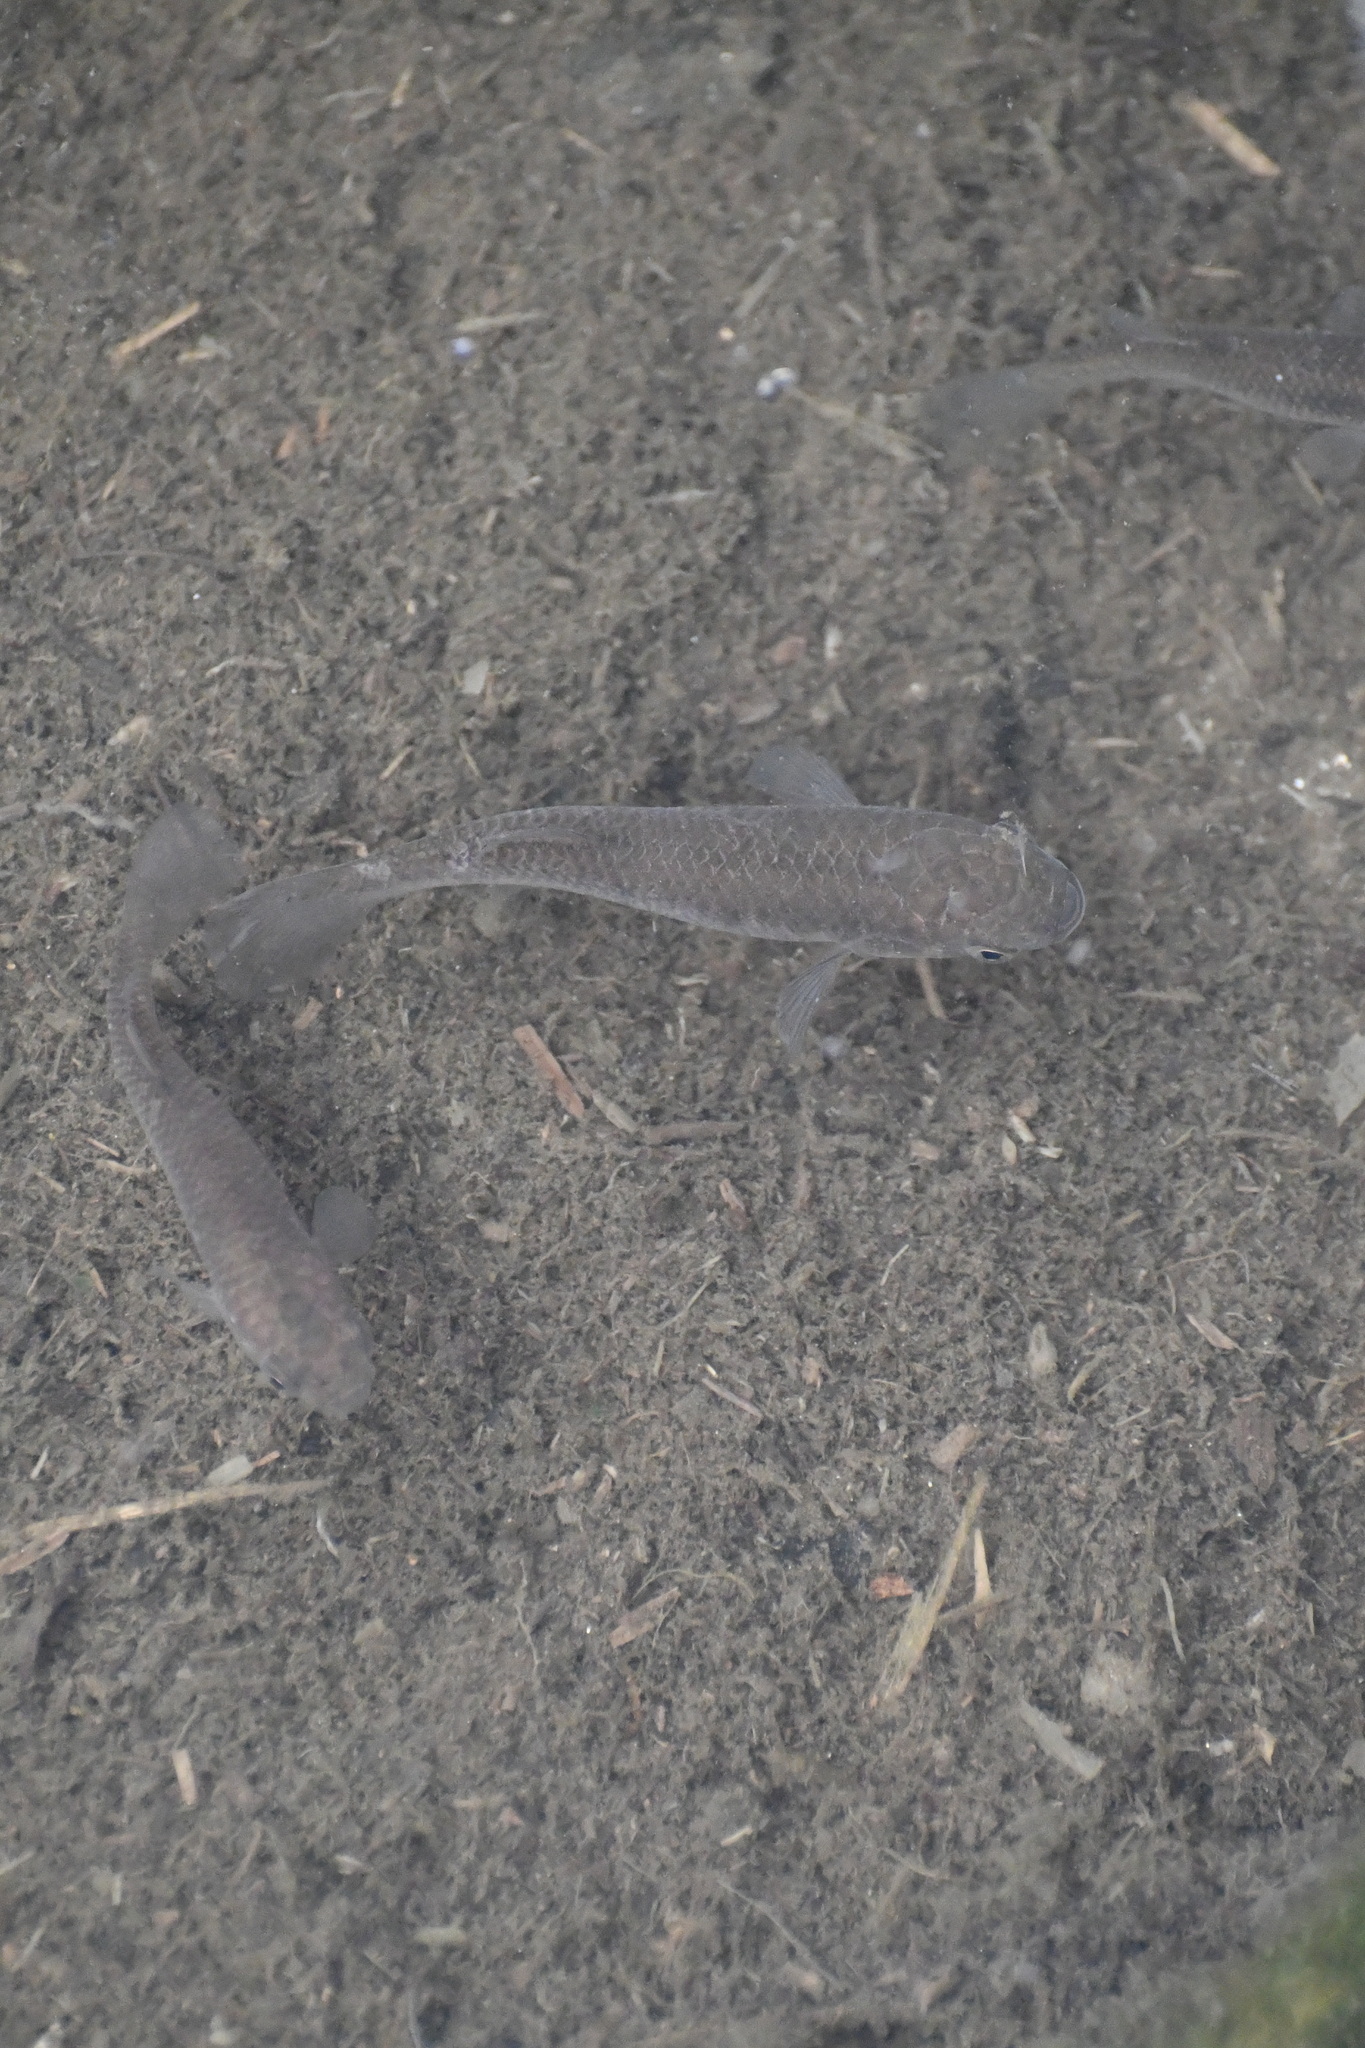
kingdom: Animalia
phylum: Chordata
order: Cyprinodontiformes
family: Fundulidae
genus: Fundulus
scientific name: Fundulus heteroclitus
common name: Mummichog
